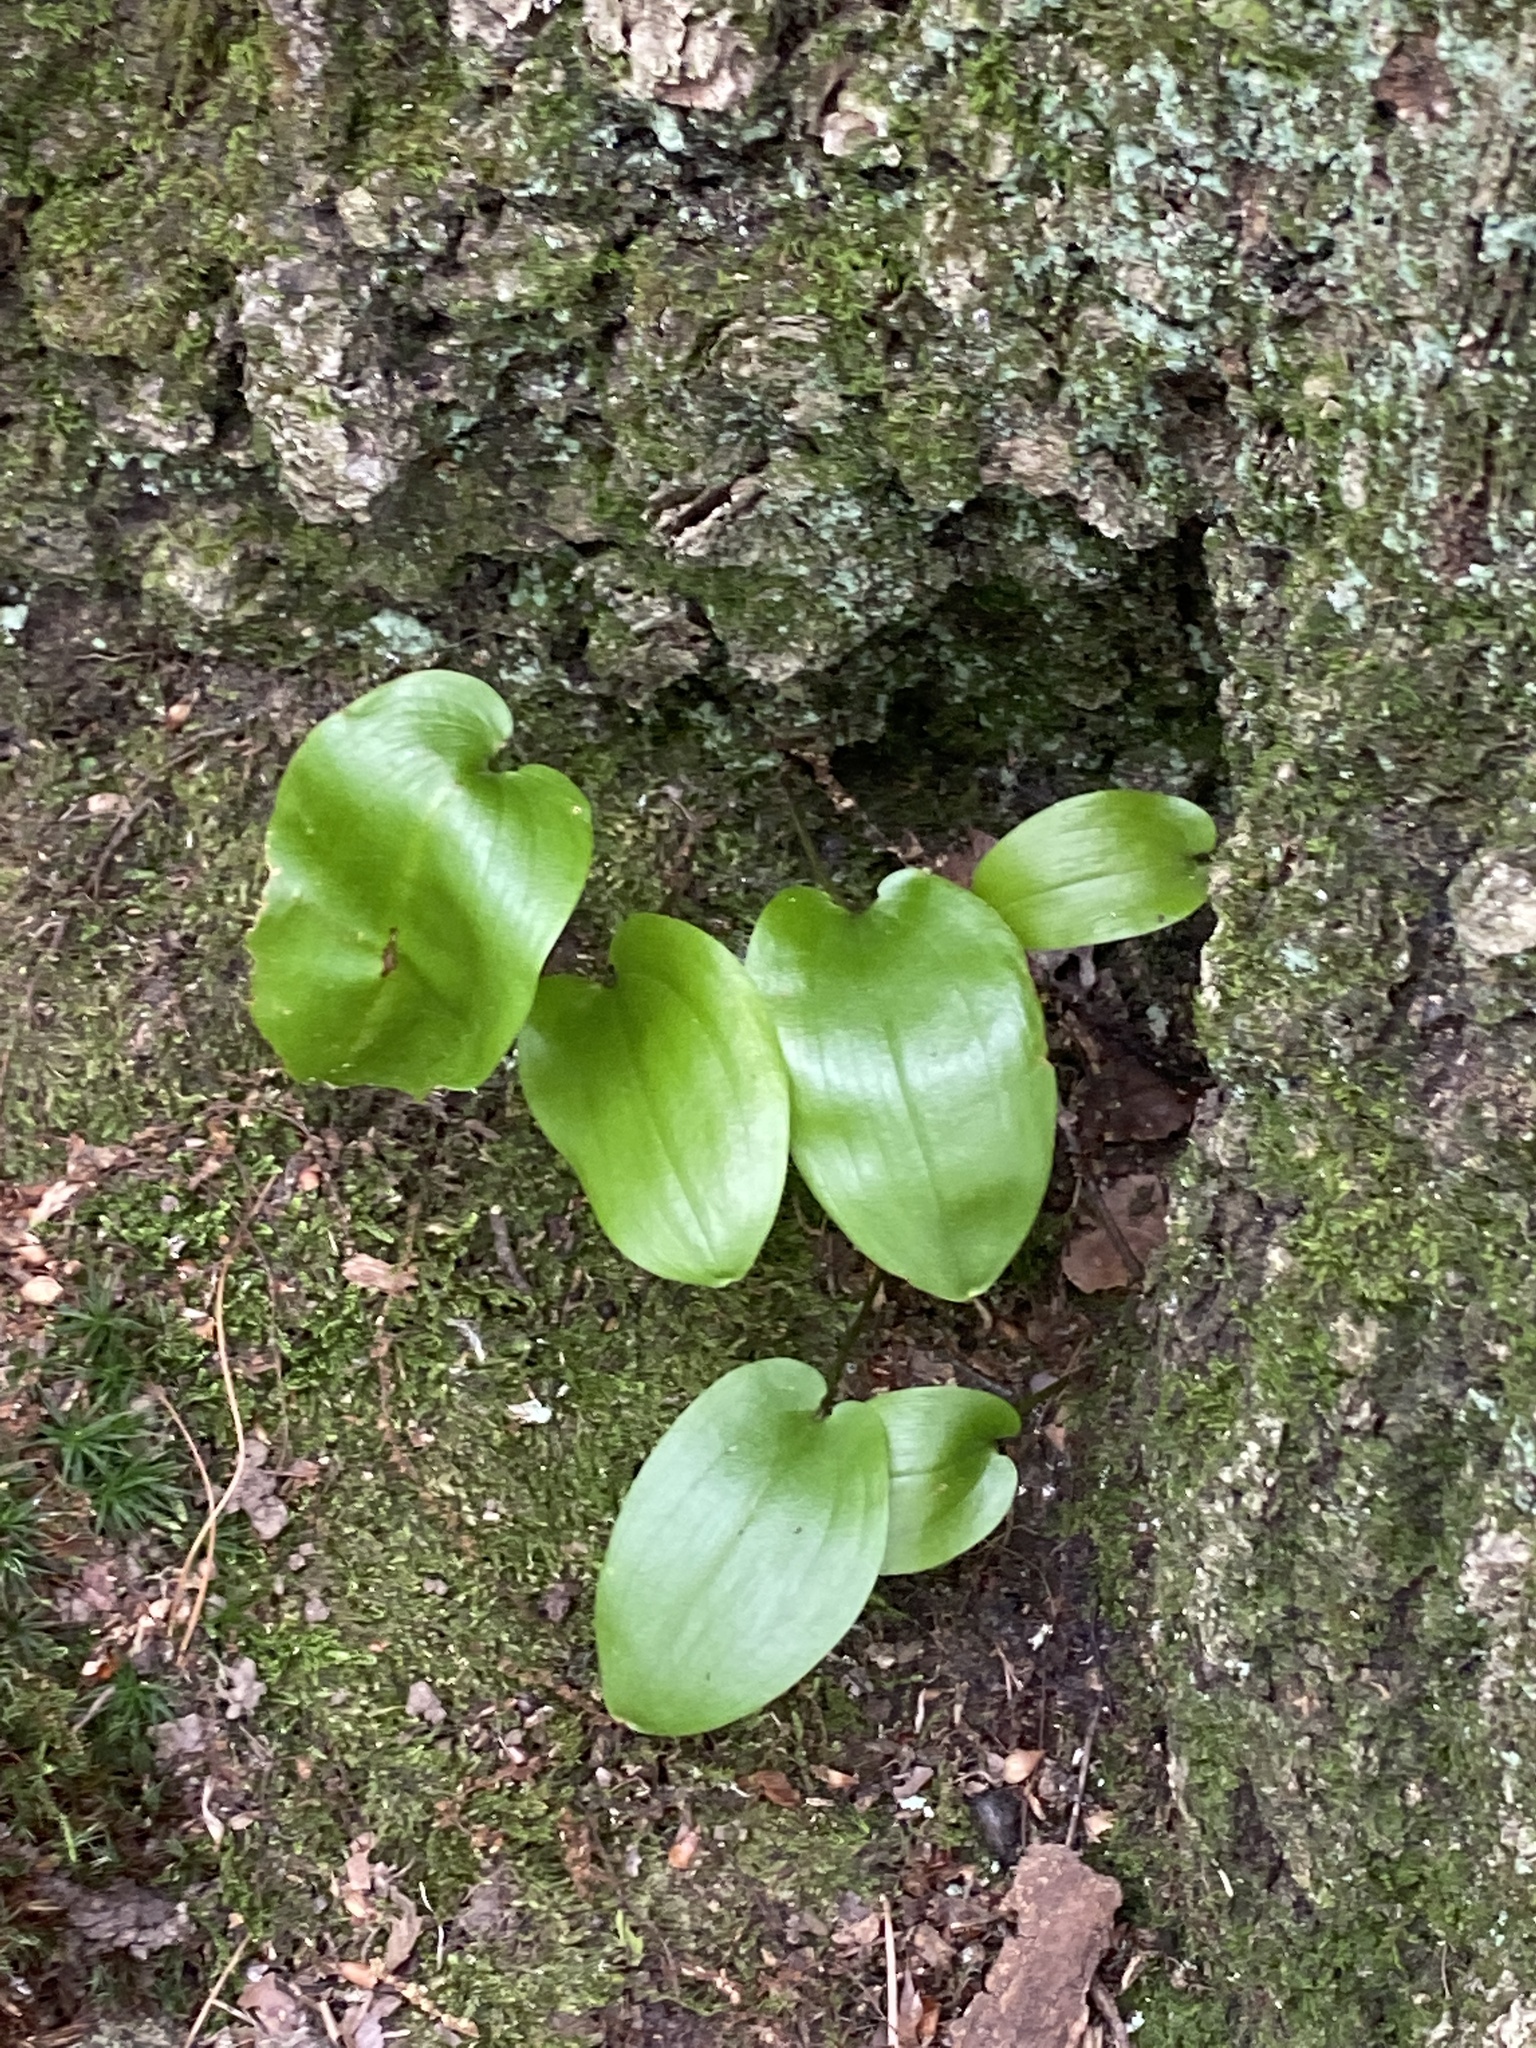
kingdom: Plantae
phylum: Tracheophyta
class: Liliopsida
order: Asparagales
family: Asparagaceae
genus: Maianthemum
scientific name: Maianthemum canadense
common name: False lily-of-the-valley
